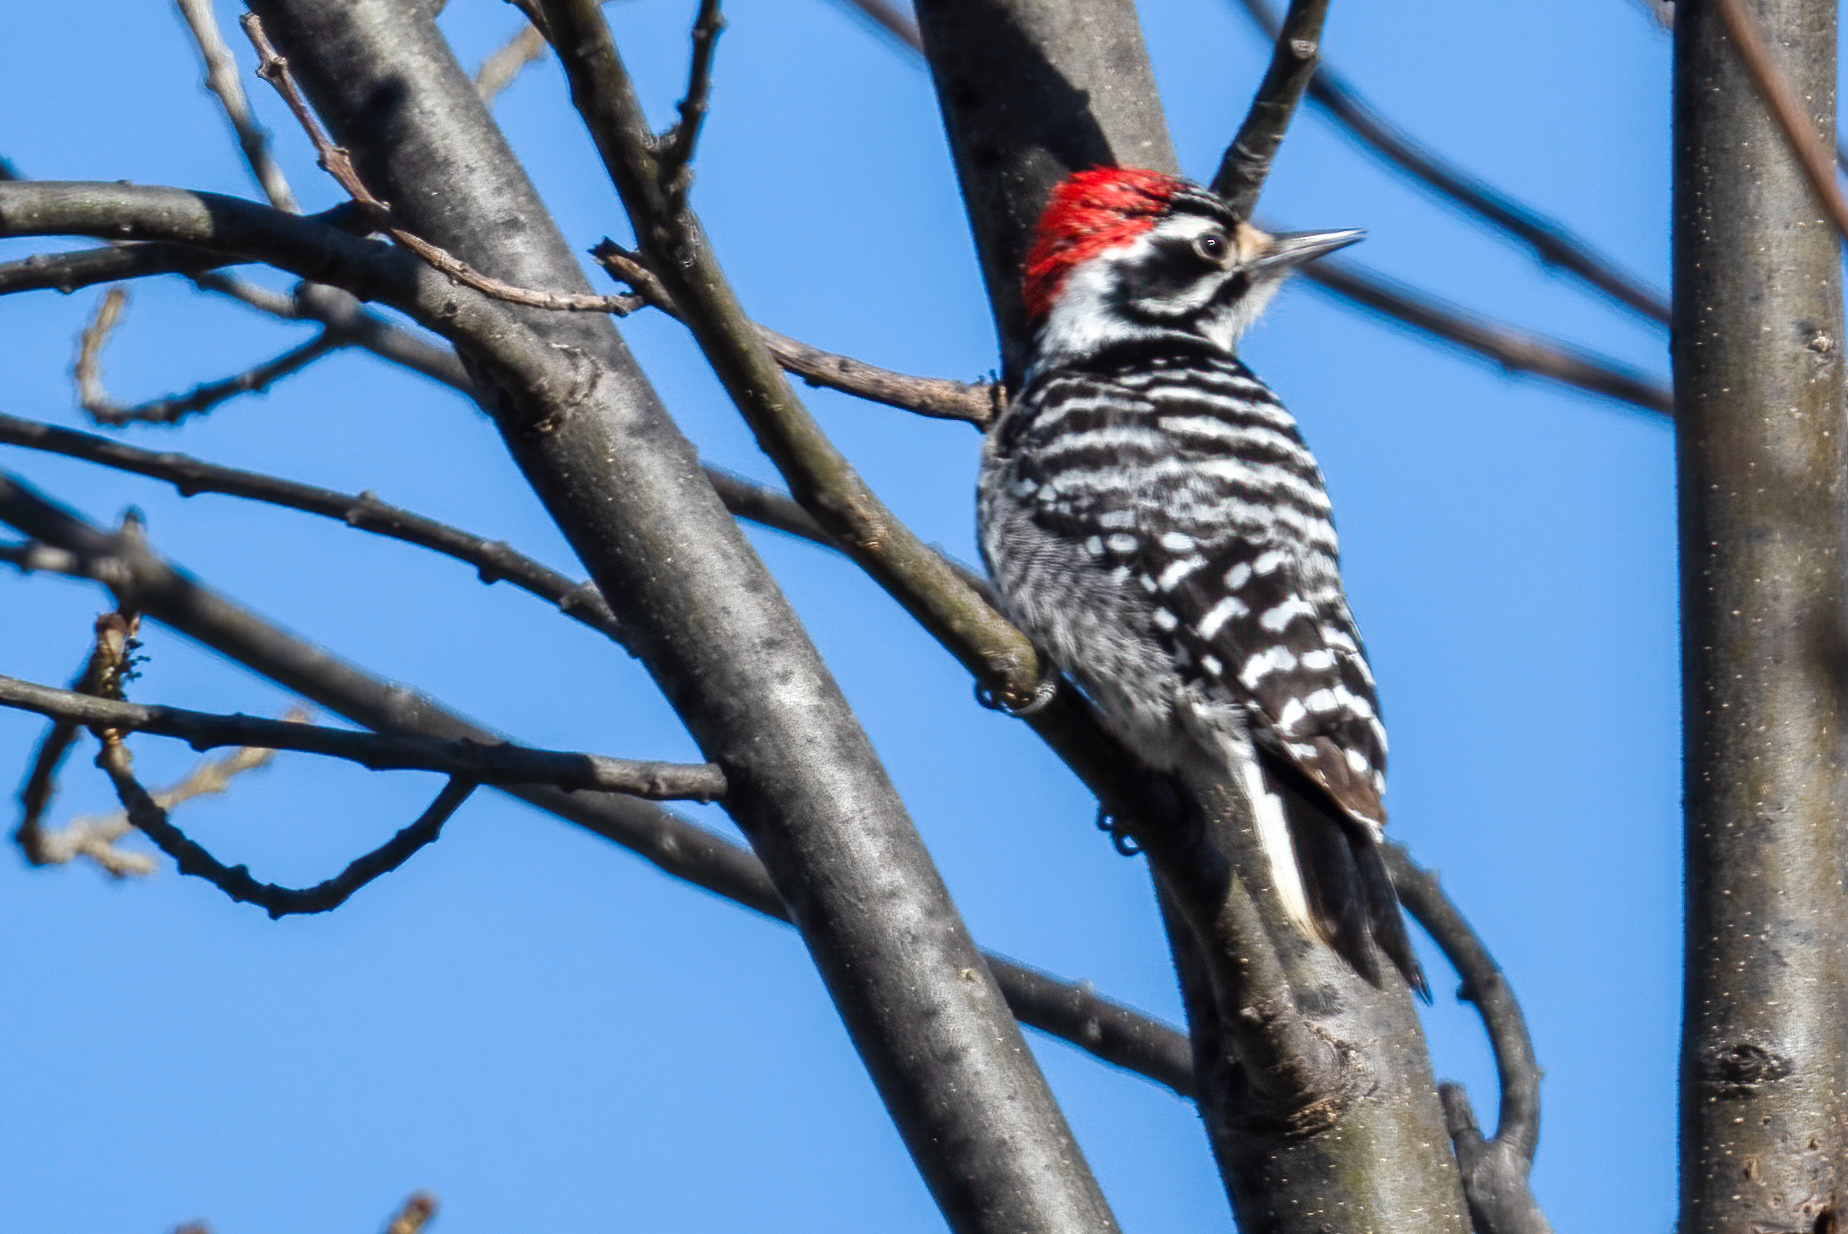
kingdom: Animalia
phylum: Chordata
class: Aves
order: Piciformes
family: Picidae
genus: Dryobates
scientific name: Dryobates nuttallii
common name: Nuttall's woodpecker
